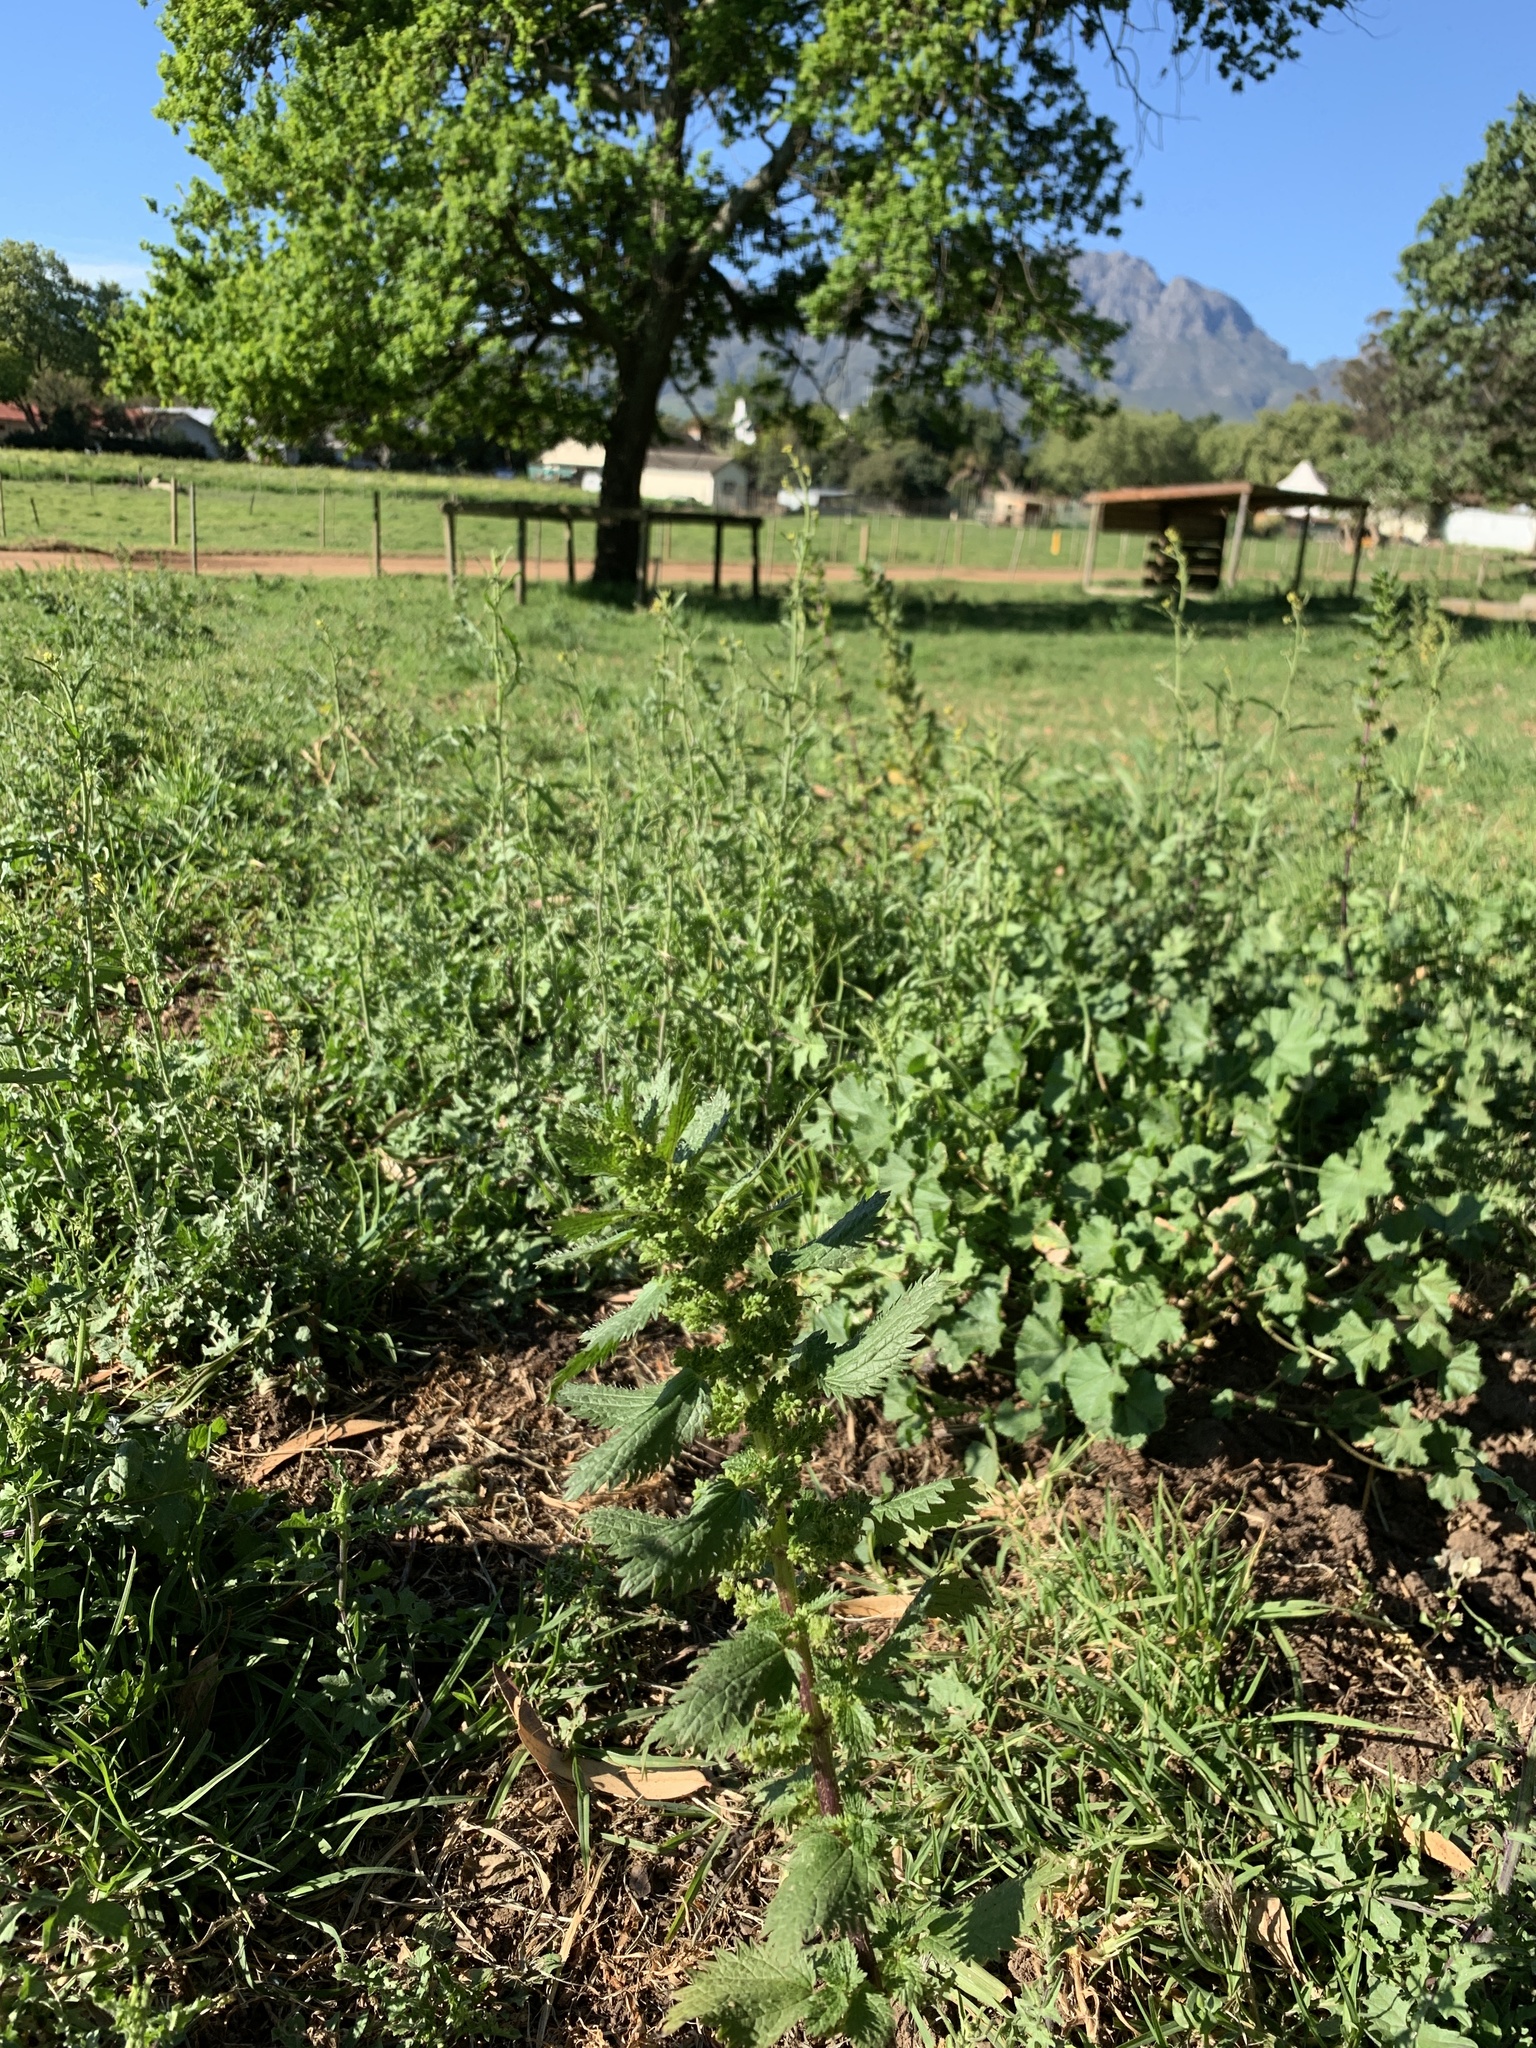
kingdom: Plantae
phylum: Tracheophyta
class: Magnoliopsida
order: Rosales
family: Urticaceae
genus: Urtica
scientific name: Urtica urens
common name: Dwarf nettle
